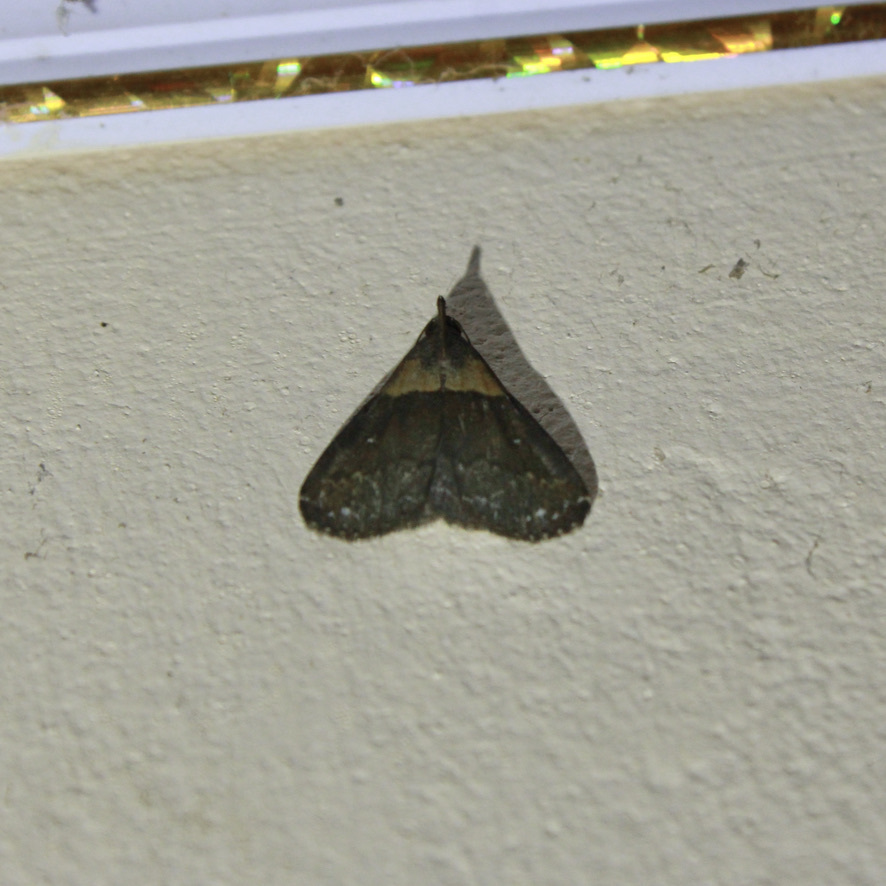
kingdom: Animalia
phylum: Arthropoda
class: Insecta
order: Lepidoptera
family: Erebidae
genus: Sitophora
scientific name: Sitophora vesiculalis
